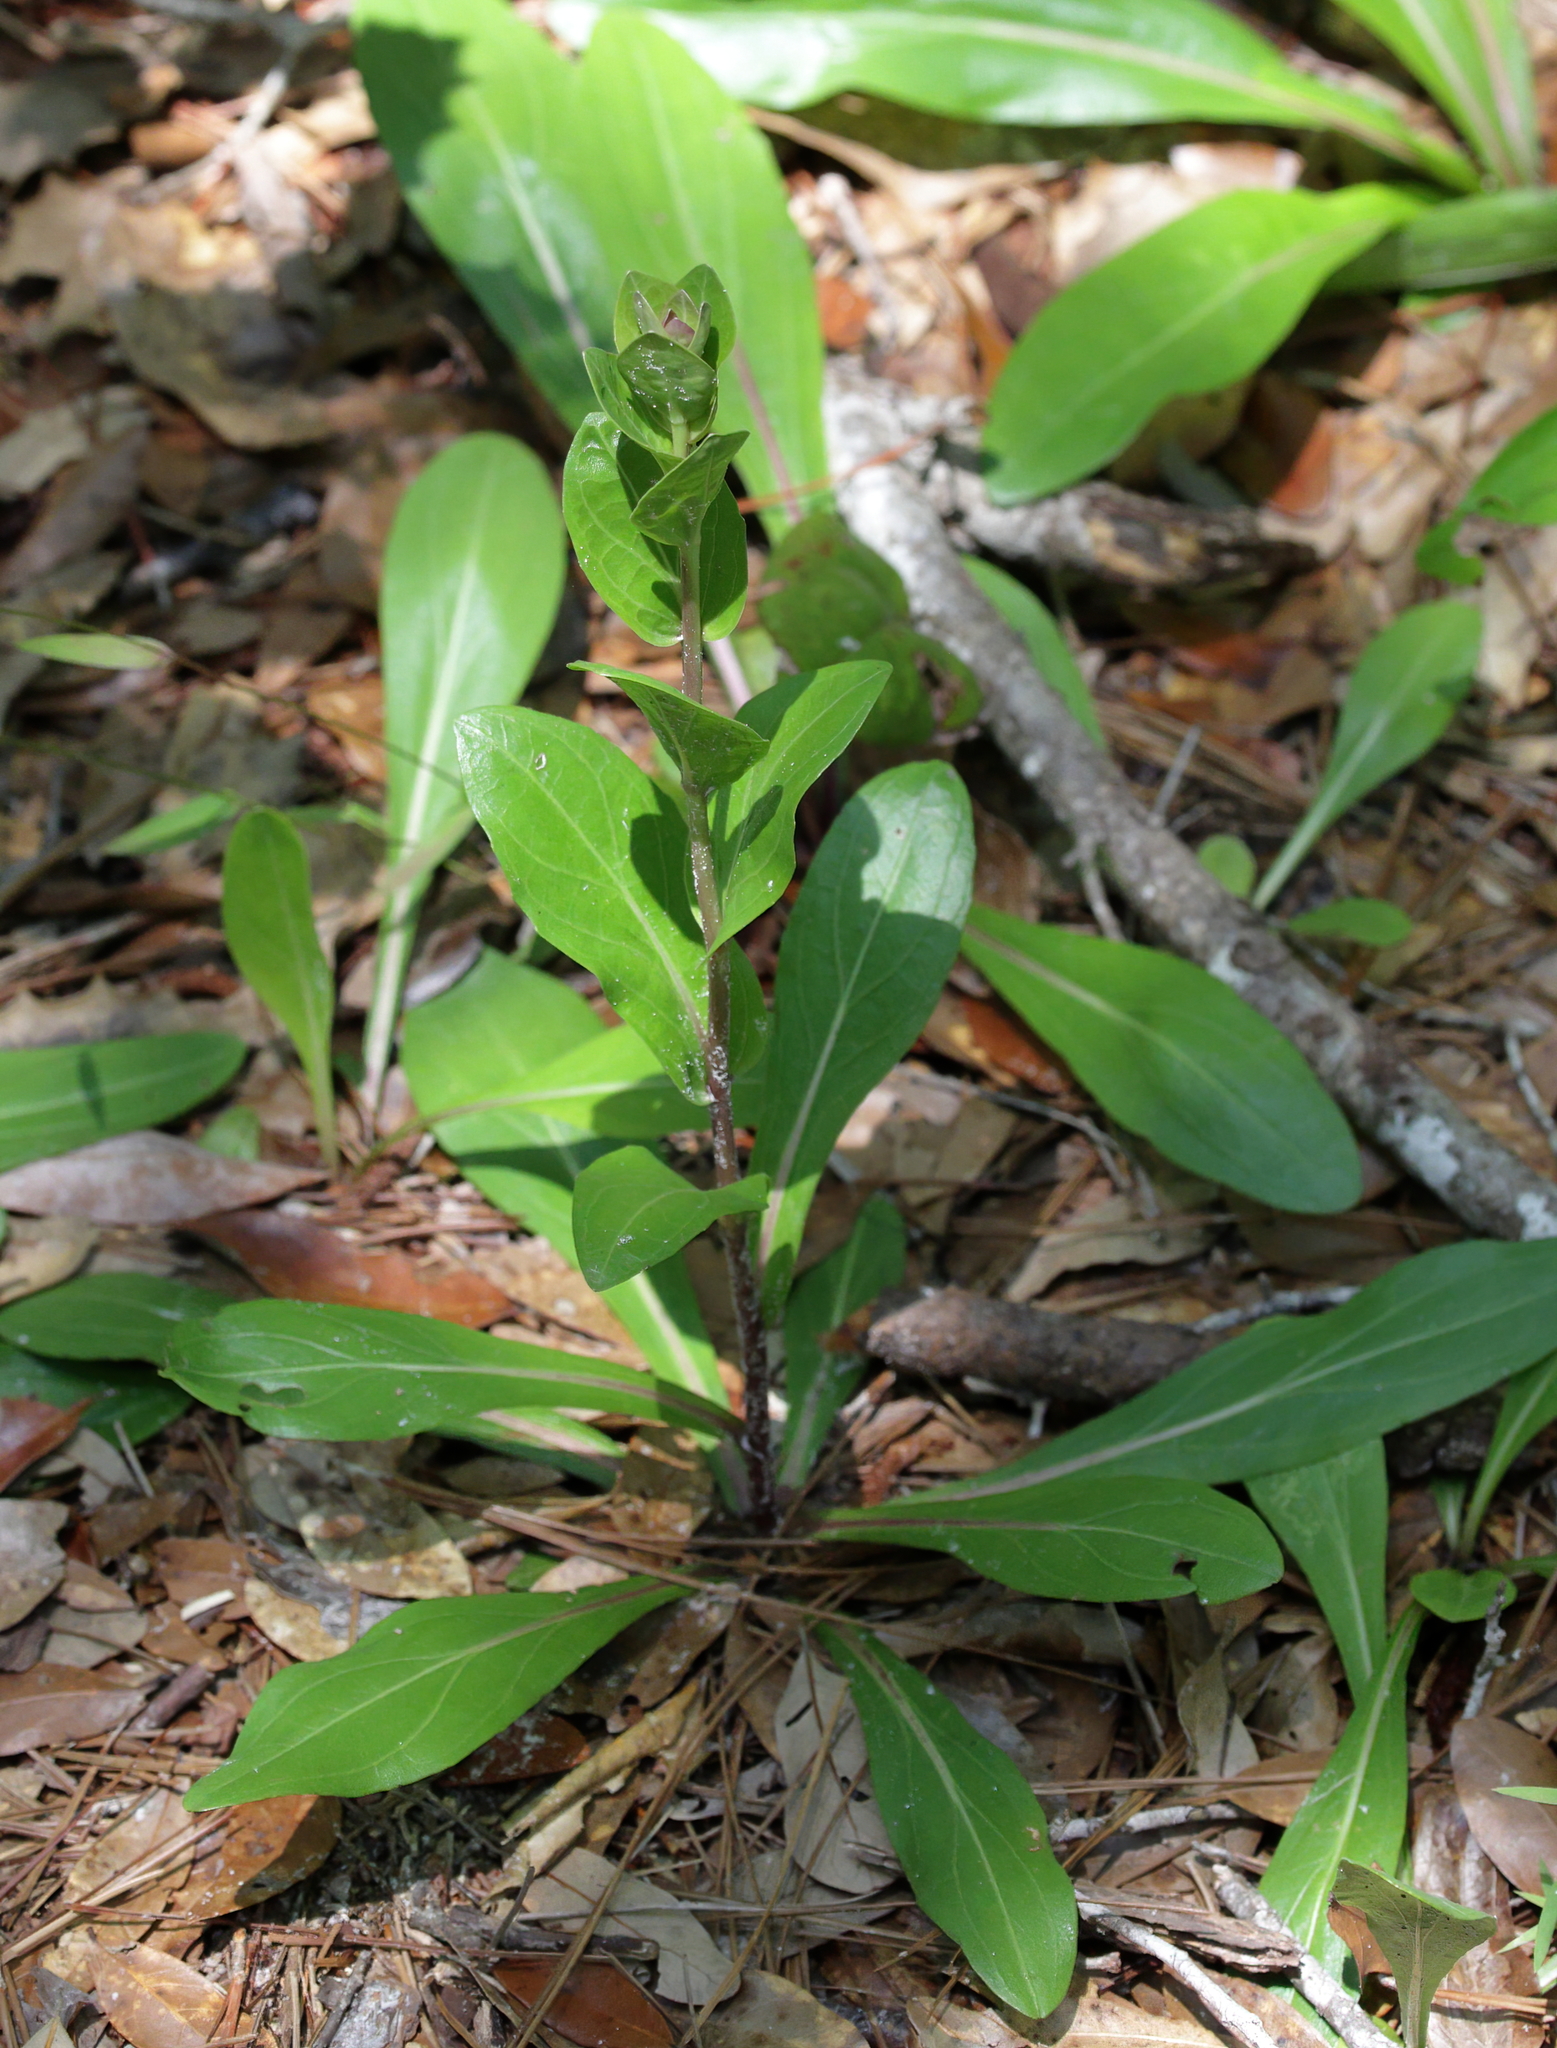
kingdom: Plantae
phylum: Tracheophyta
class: Magnoliopsida
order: Asterales
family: Asteraceae
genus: Carphephorus
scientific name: Carphephorus odoratissimus
